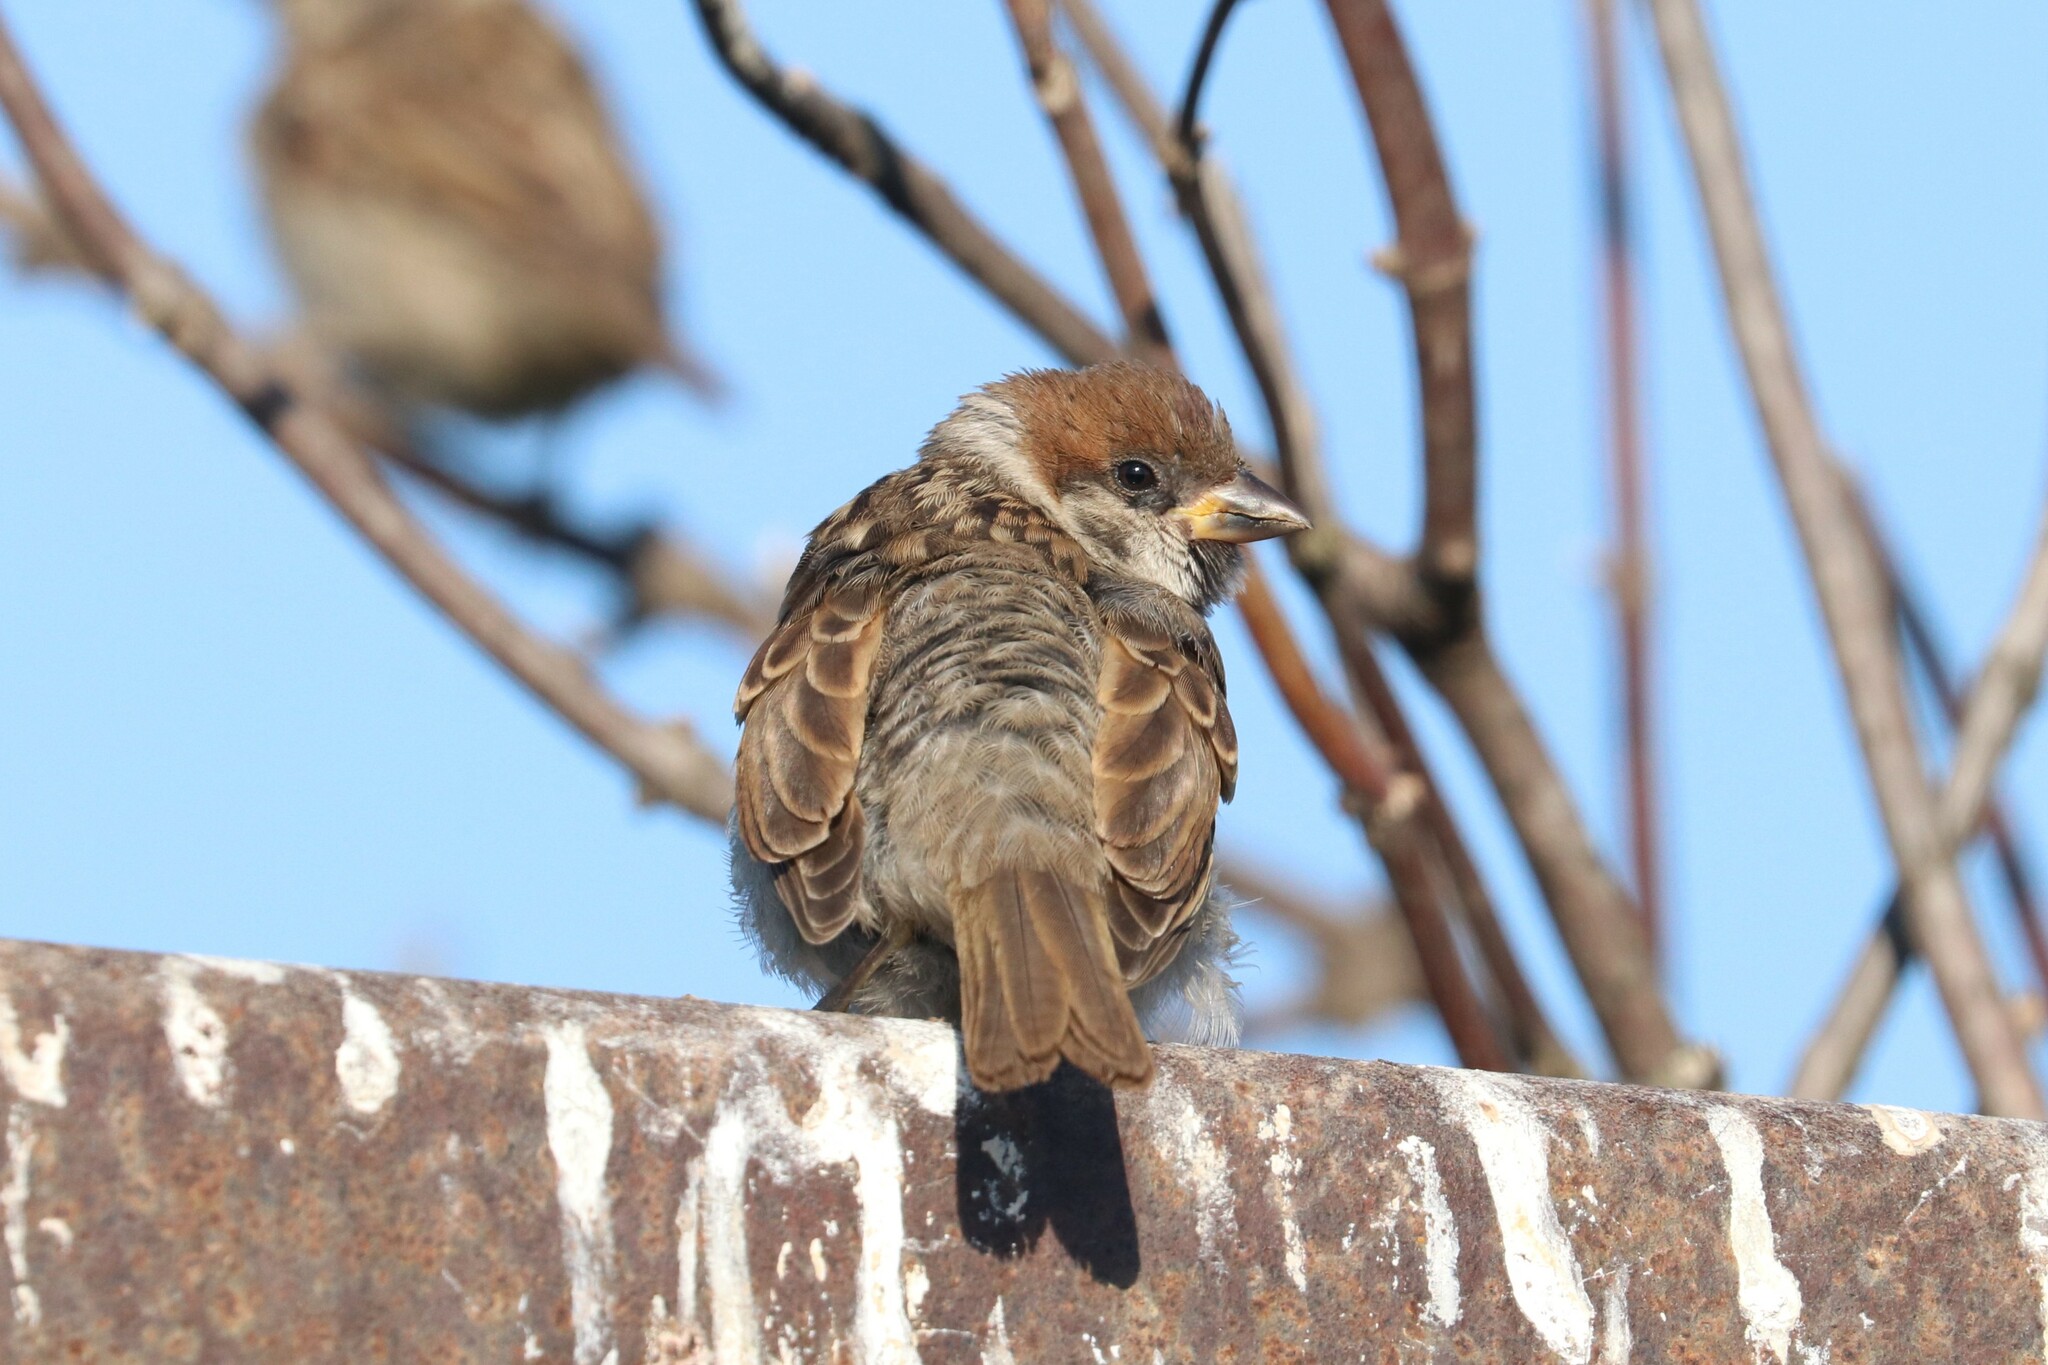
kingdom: Animalia
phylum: Chordata
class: Aves
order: Passeriformes
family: Passeridae
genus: Passer
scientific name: Passer montanus
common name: Eurasian tree sparrow
